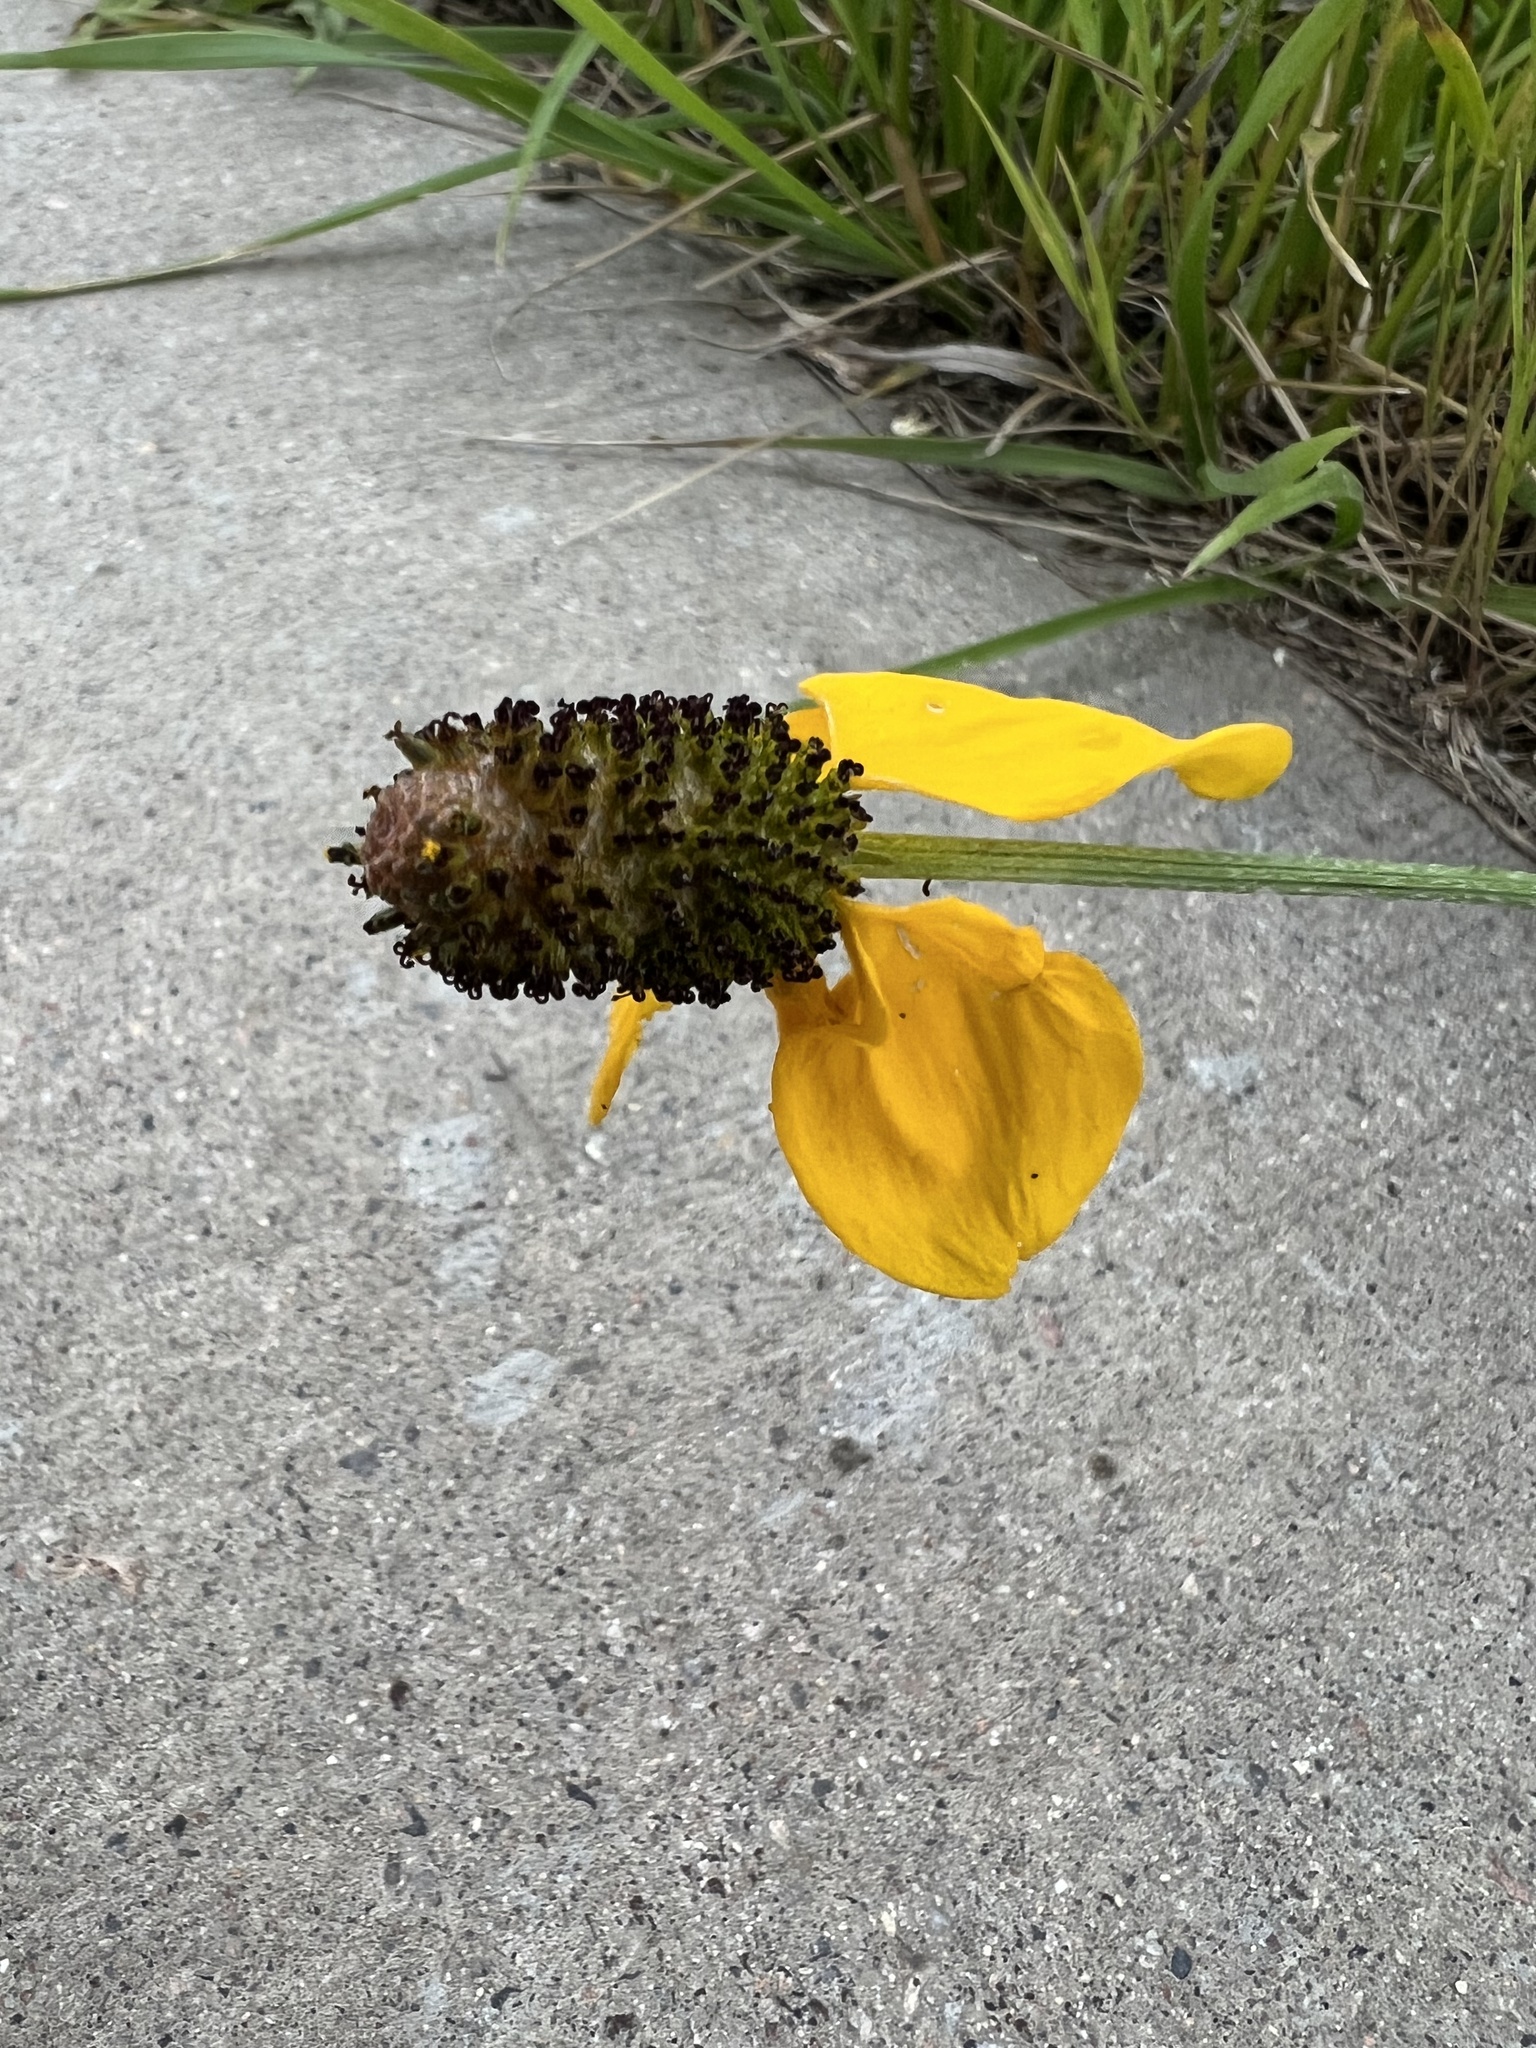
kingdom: Plantae
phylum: Tracheophyta
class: Magnoliopsida
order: Asterales
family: Asteraceae
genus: Ratibida
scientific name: Ratibida columnifera
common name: Prairie coneflower
